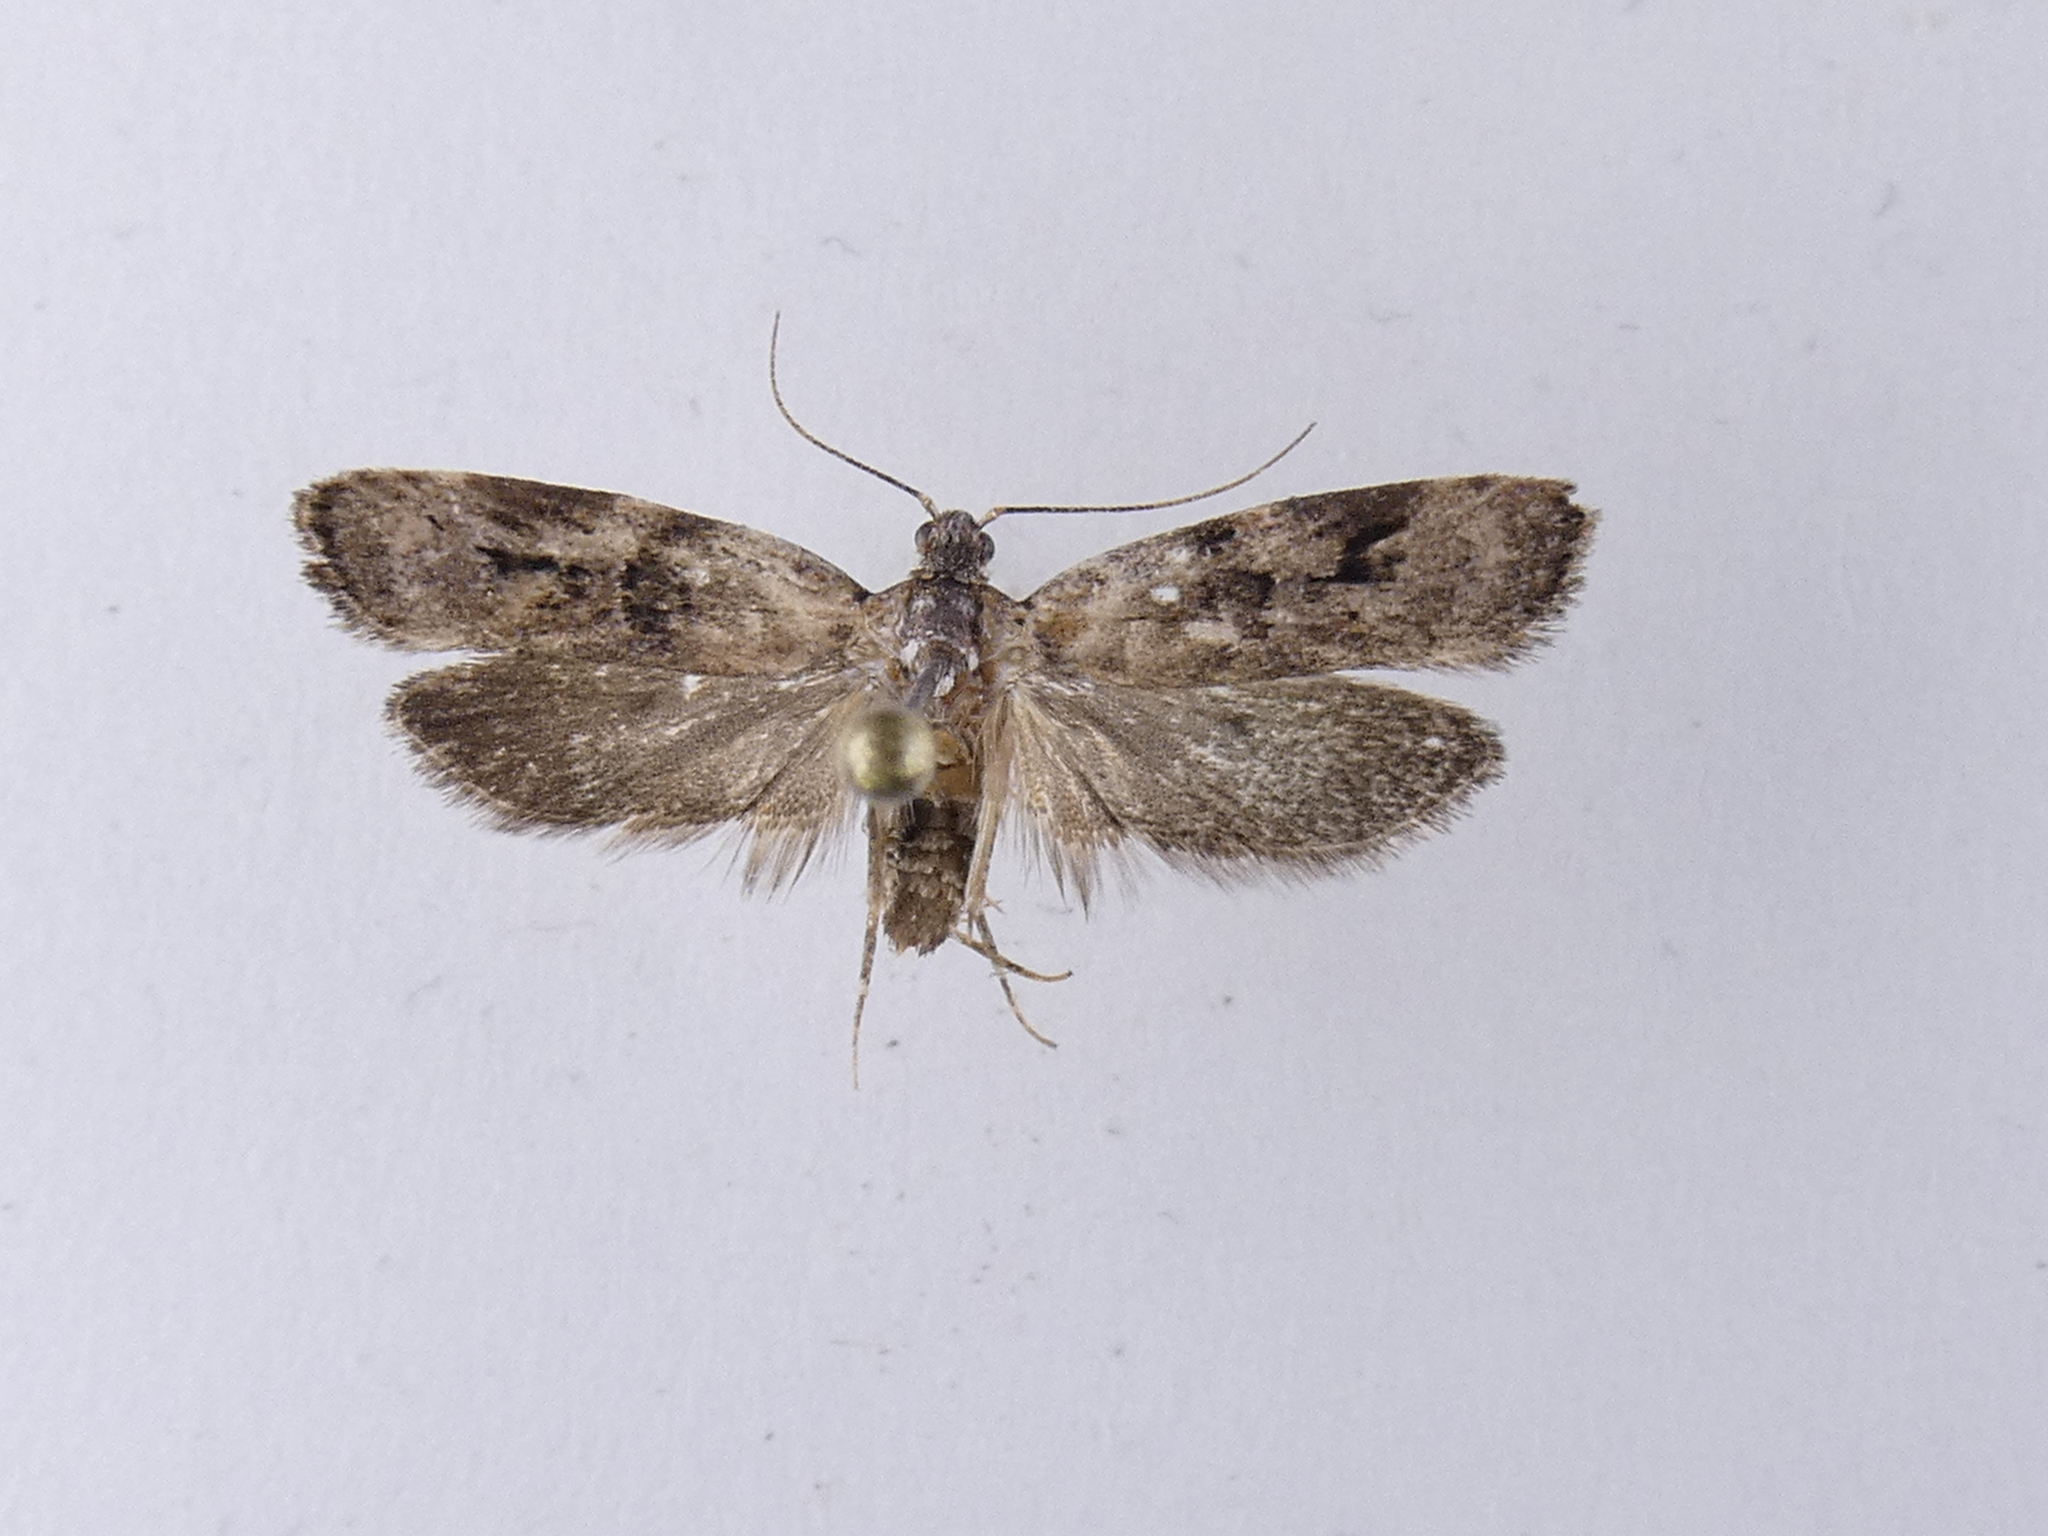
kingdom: Animalia
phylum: Arthropoda
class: Insecta
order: Lepidoptera
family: Oecophoridae
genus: Izatha
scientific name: Izatha metadelta
